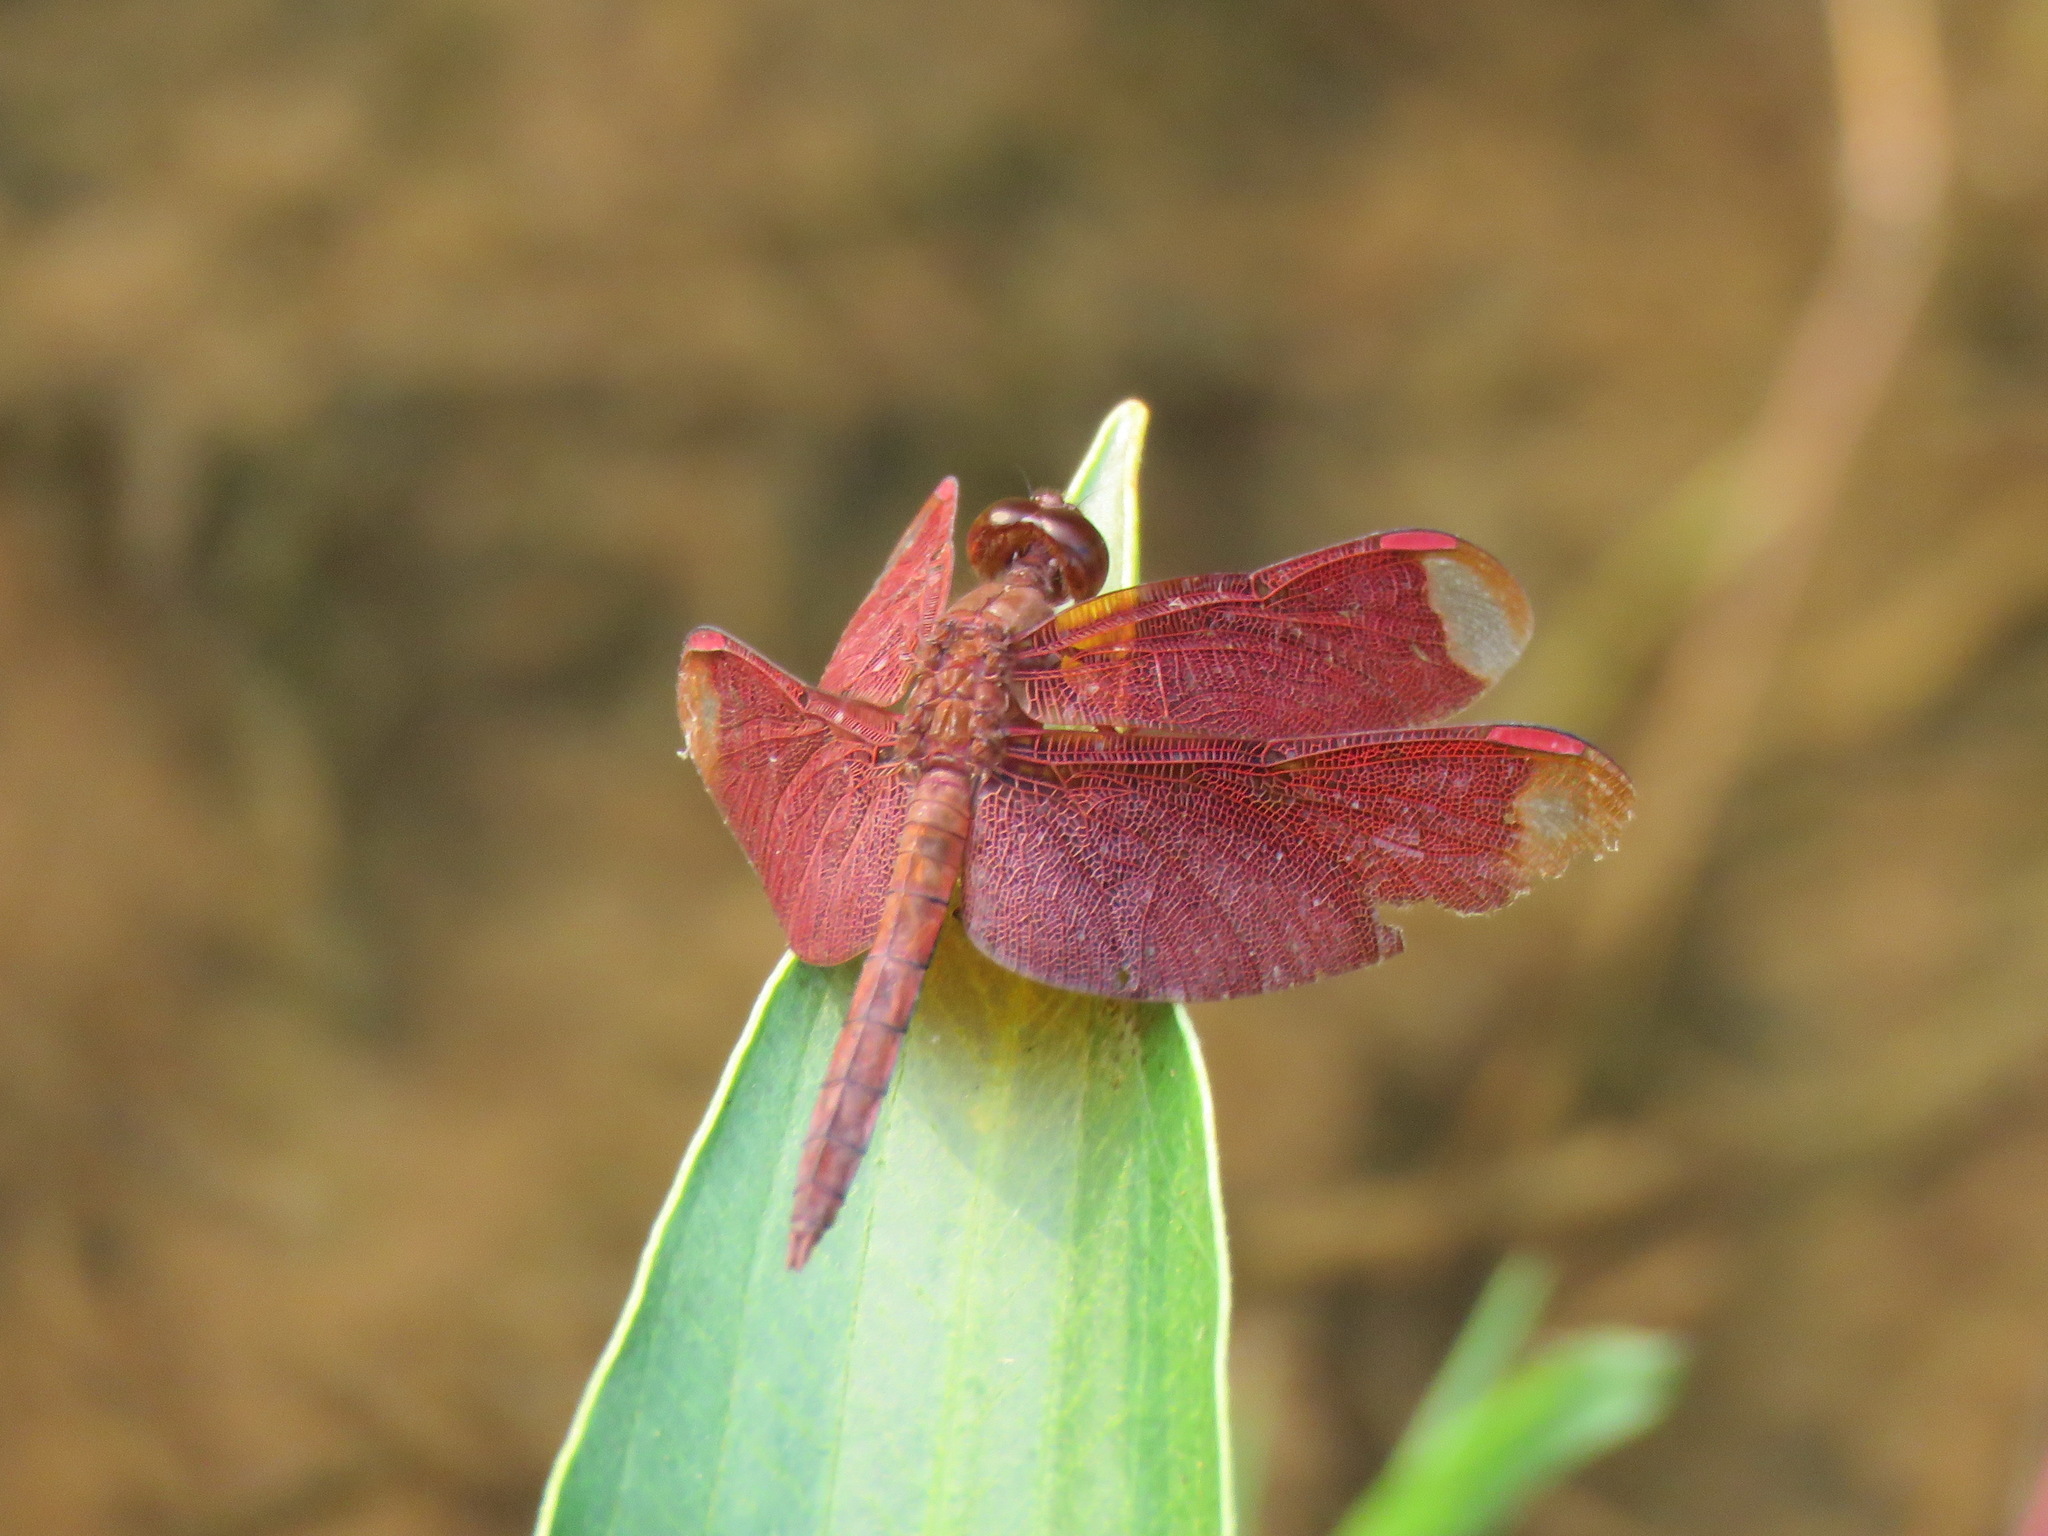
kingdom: Animalia
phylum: Arthropoda
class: Insecta
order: Odonata
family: Libellulidae
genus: Neurothemis
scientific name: Neurothemis fulvia
